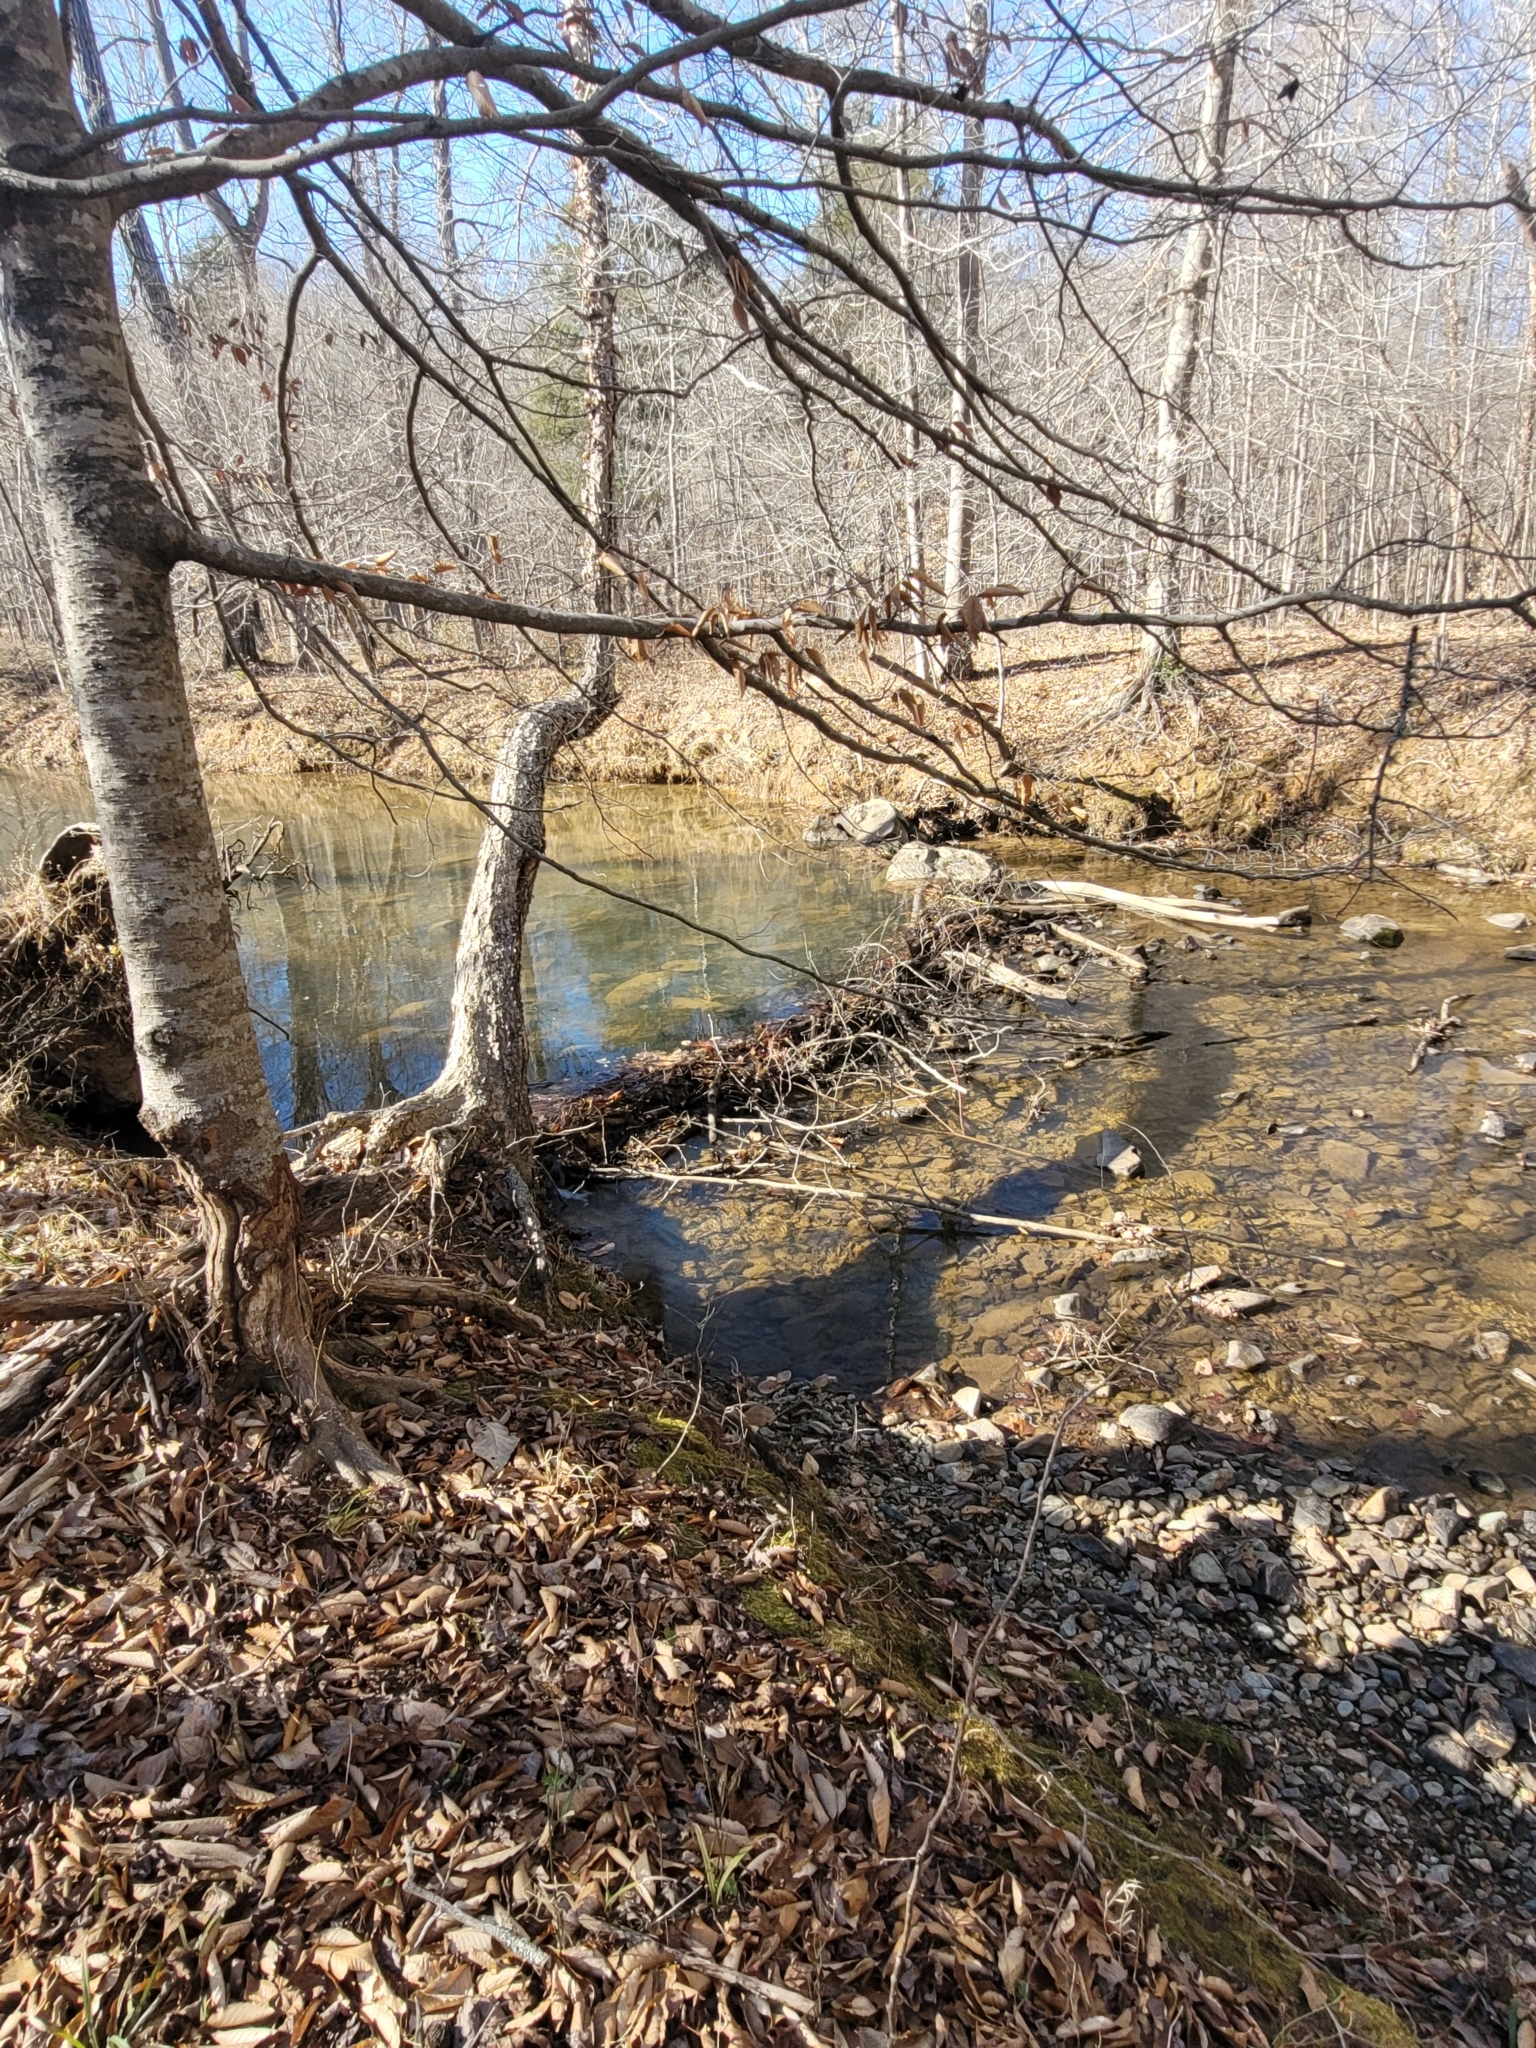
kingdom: Animalia
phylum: Chordata
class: Mammalia
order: Rodentia
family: Castoridae
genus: Castor
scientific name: Castor canadensis
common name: American beaver
